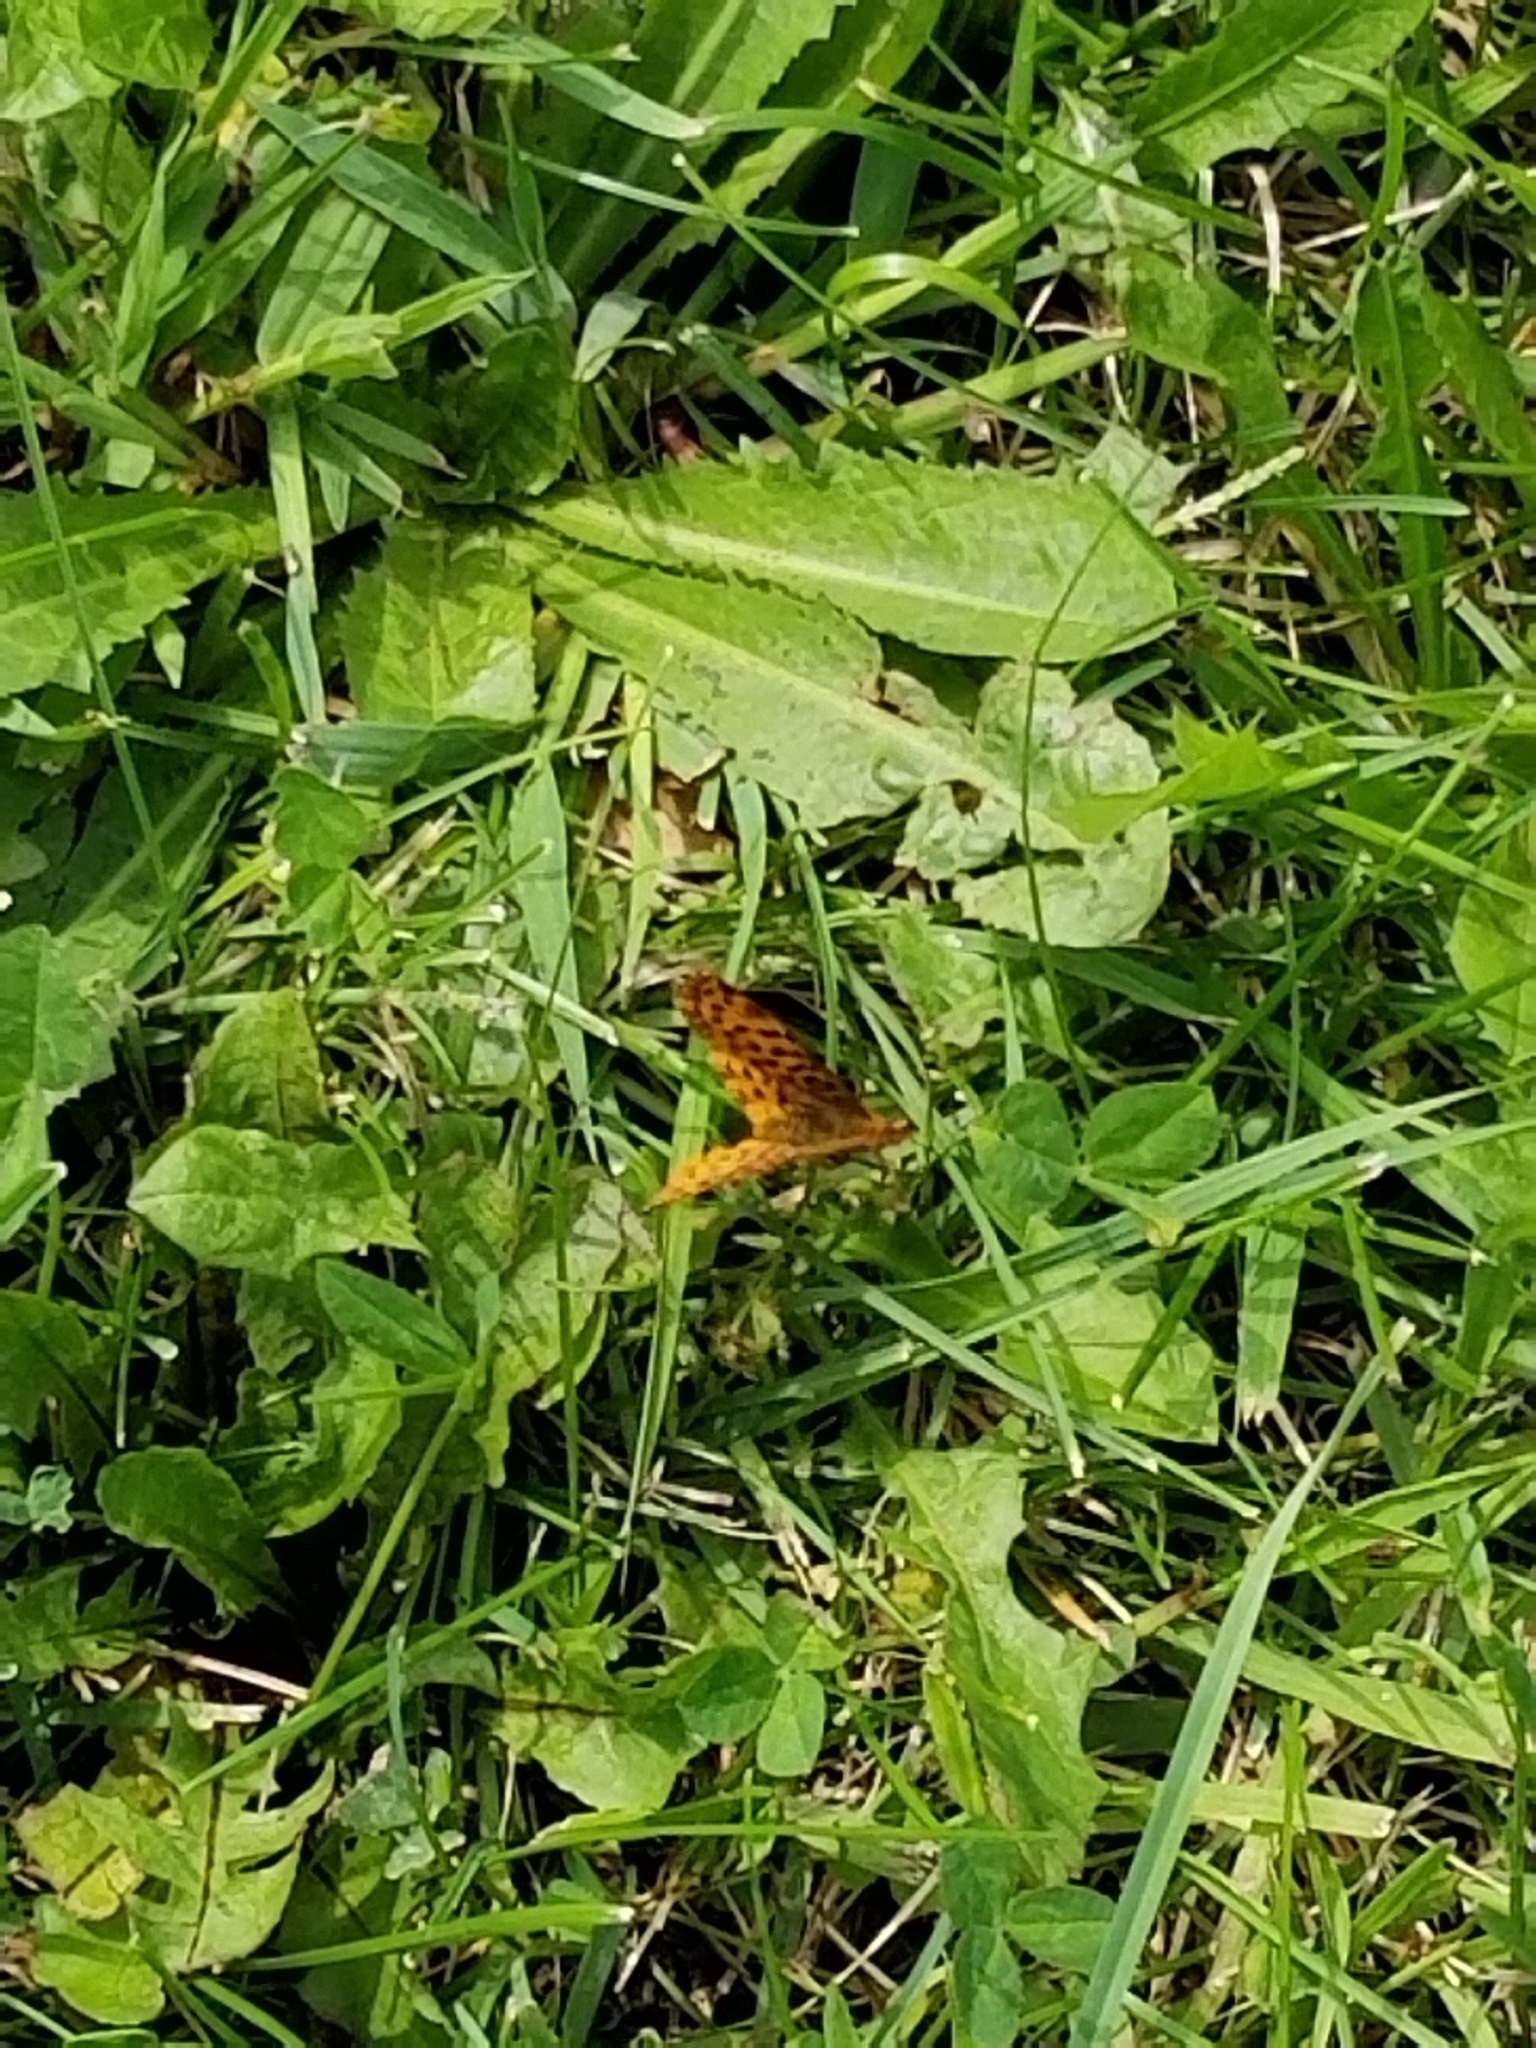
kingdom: Animalia
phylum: Arthropoda
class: Insecta
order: Lepidoptera
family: Nymphalidae
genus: Clossiana
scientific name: Clossiana toddi
